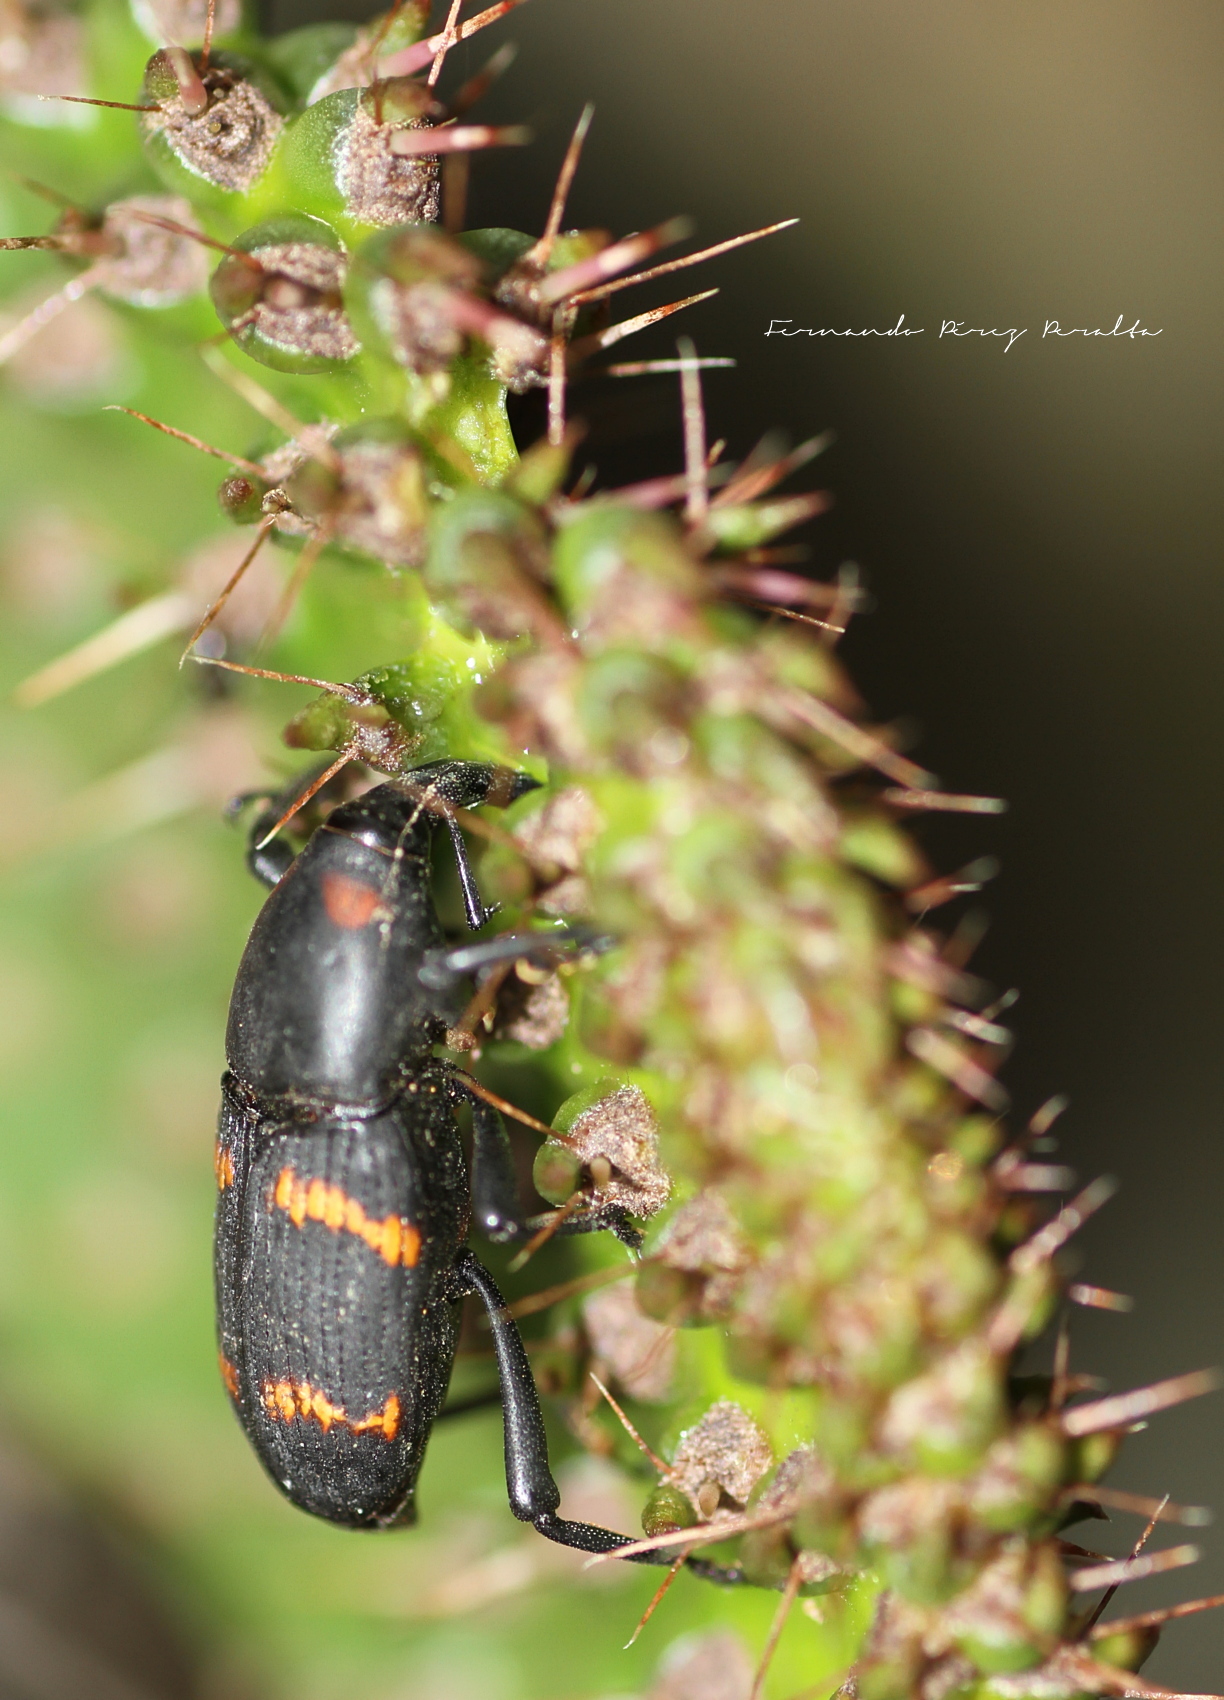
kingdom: Animalia
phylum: Arthropoda
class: Insecta
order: Coleoptera
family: Dryophthoridae
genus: Cactophagus
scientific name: Cactophagus spinolae
